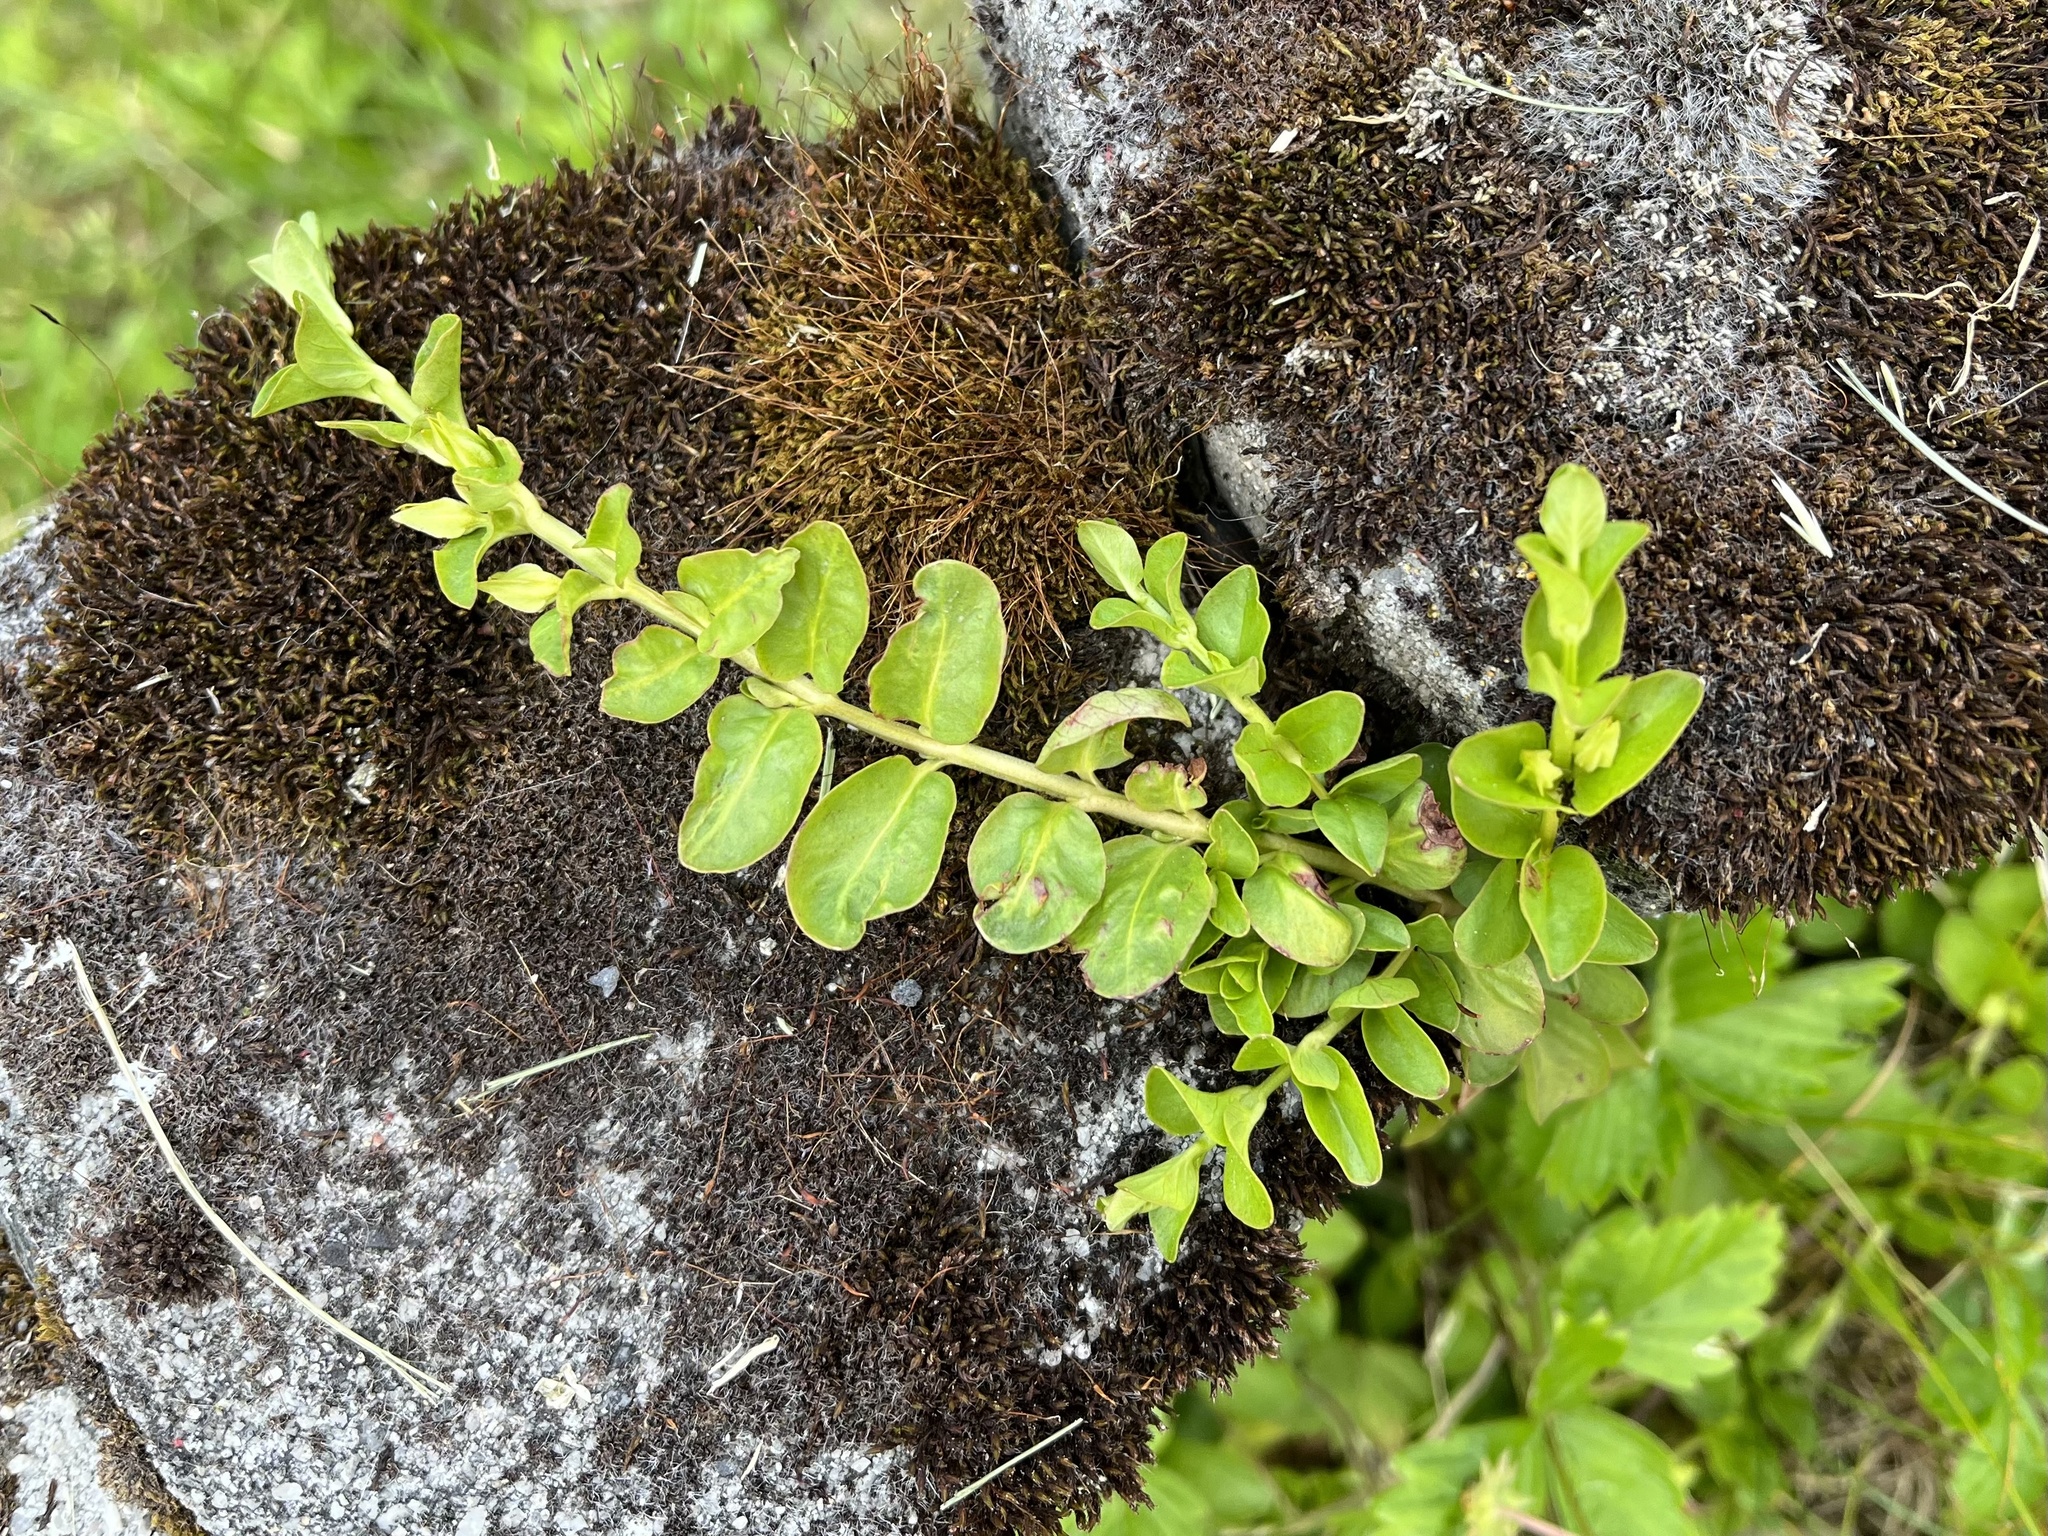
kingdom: Plantae
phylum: Tracheophyta
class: Magnoliopsida
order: Ericales
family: Primulaceae
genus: Lysimachia
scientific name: Lysimachia nummularia
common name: Moneywort
